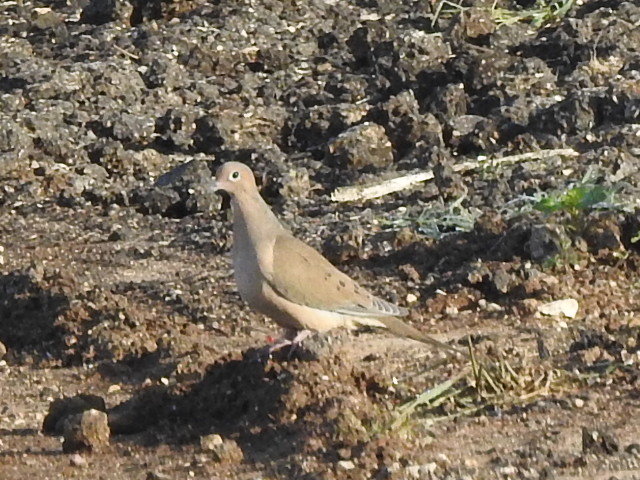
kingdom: Animalia
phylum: Chordata
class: Aves
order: Columbiformes
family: Columbidae
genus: Zenaida
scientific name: Zenaida macroura
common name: Mourning dove
